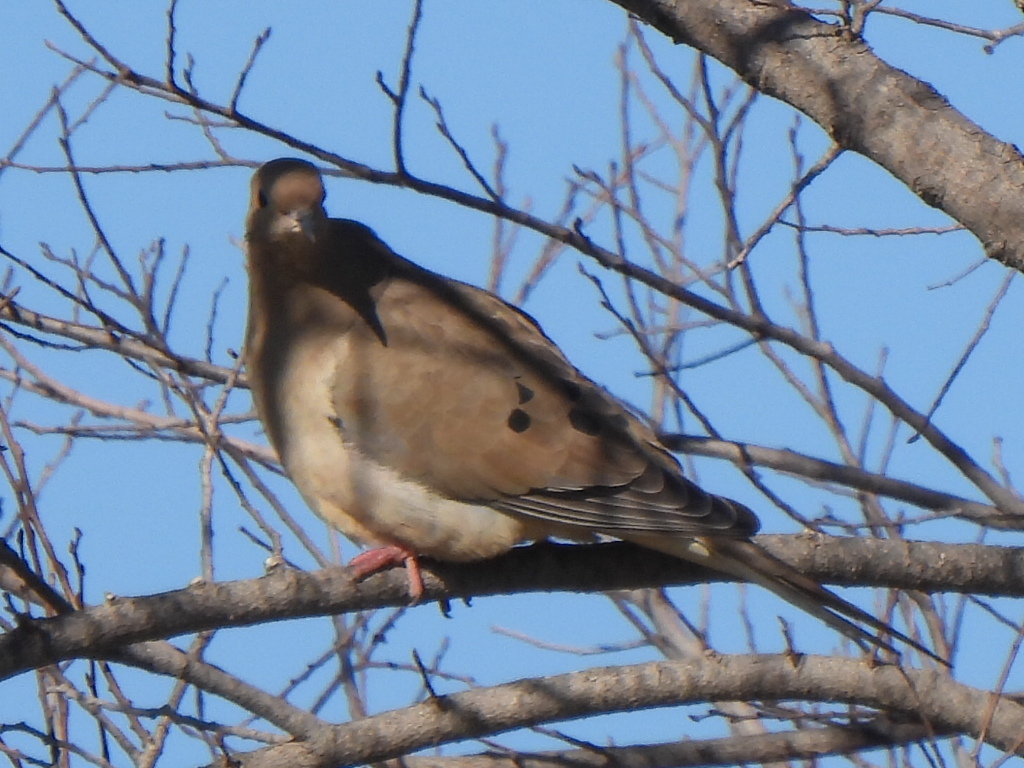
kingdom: Animalia
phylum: Chordata
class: Aves
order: Columbiformes
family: Columbidae
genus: Zenaida
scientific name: Zenaida macroura
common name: Mourning dove
